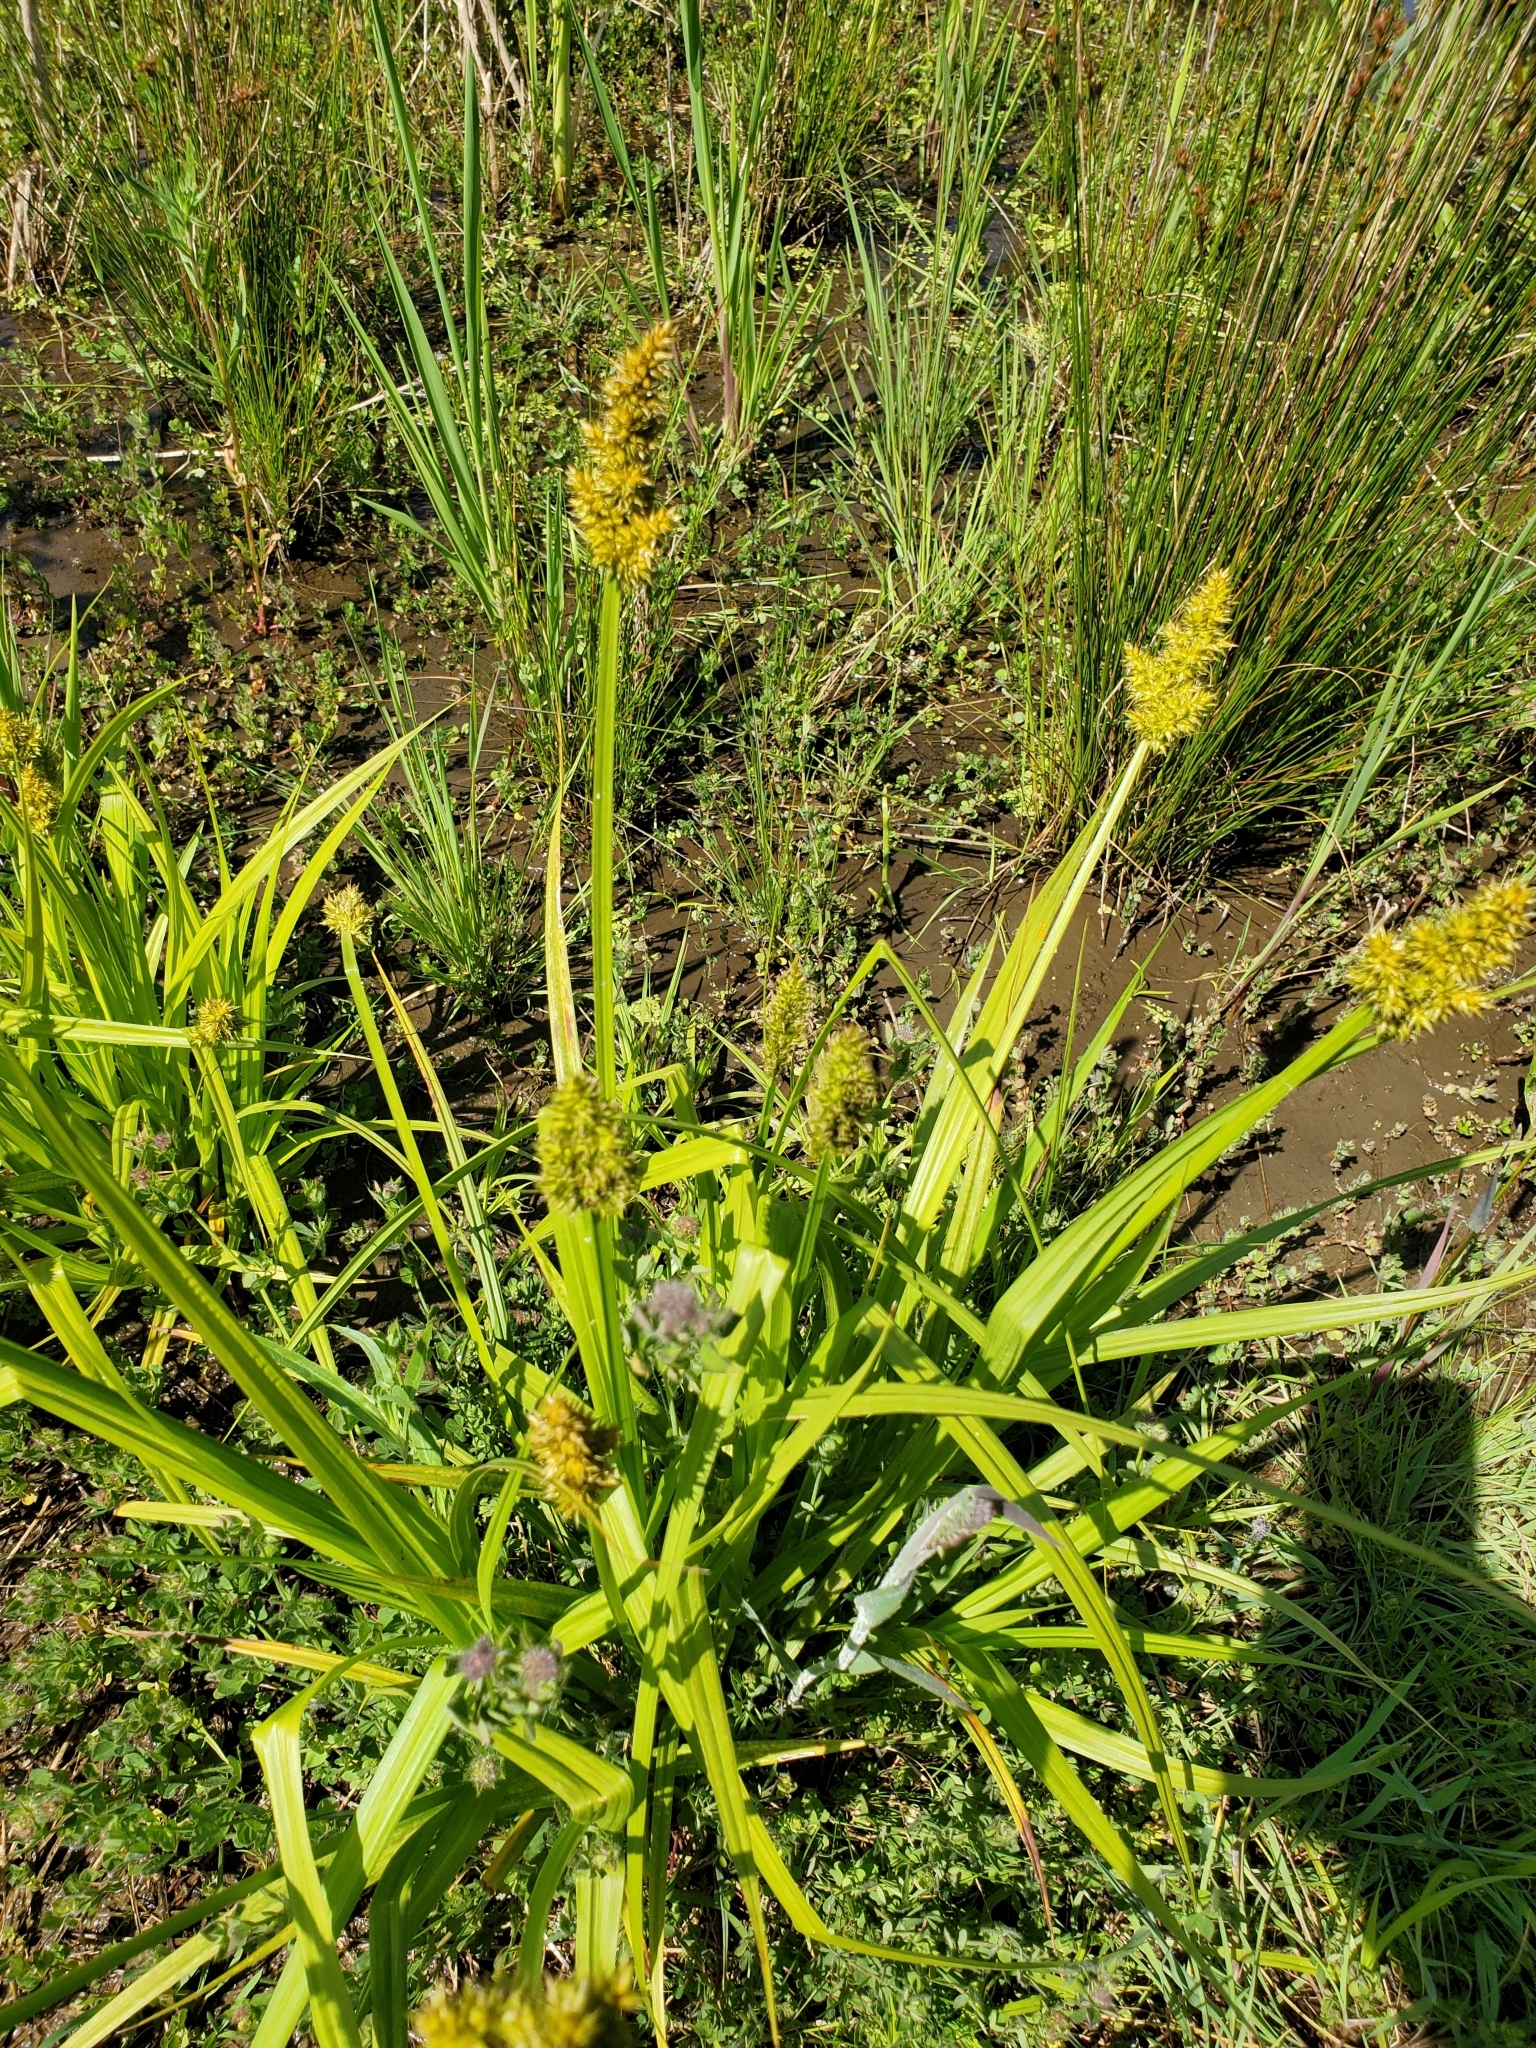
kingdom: Plantae
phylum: Tracheophyta
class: Liliopsida
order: Poales
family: Cyperaceae
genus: Carex
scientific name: Carex stipata
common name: Awl-fruited sedge
